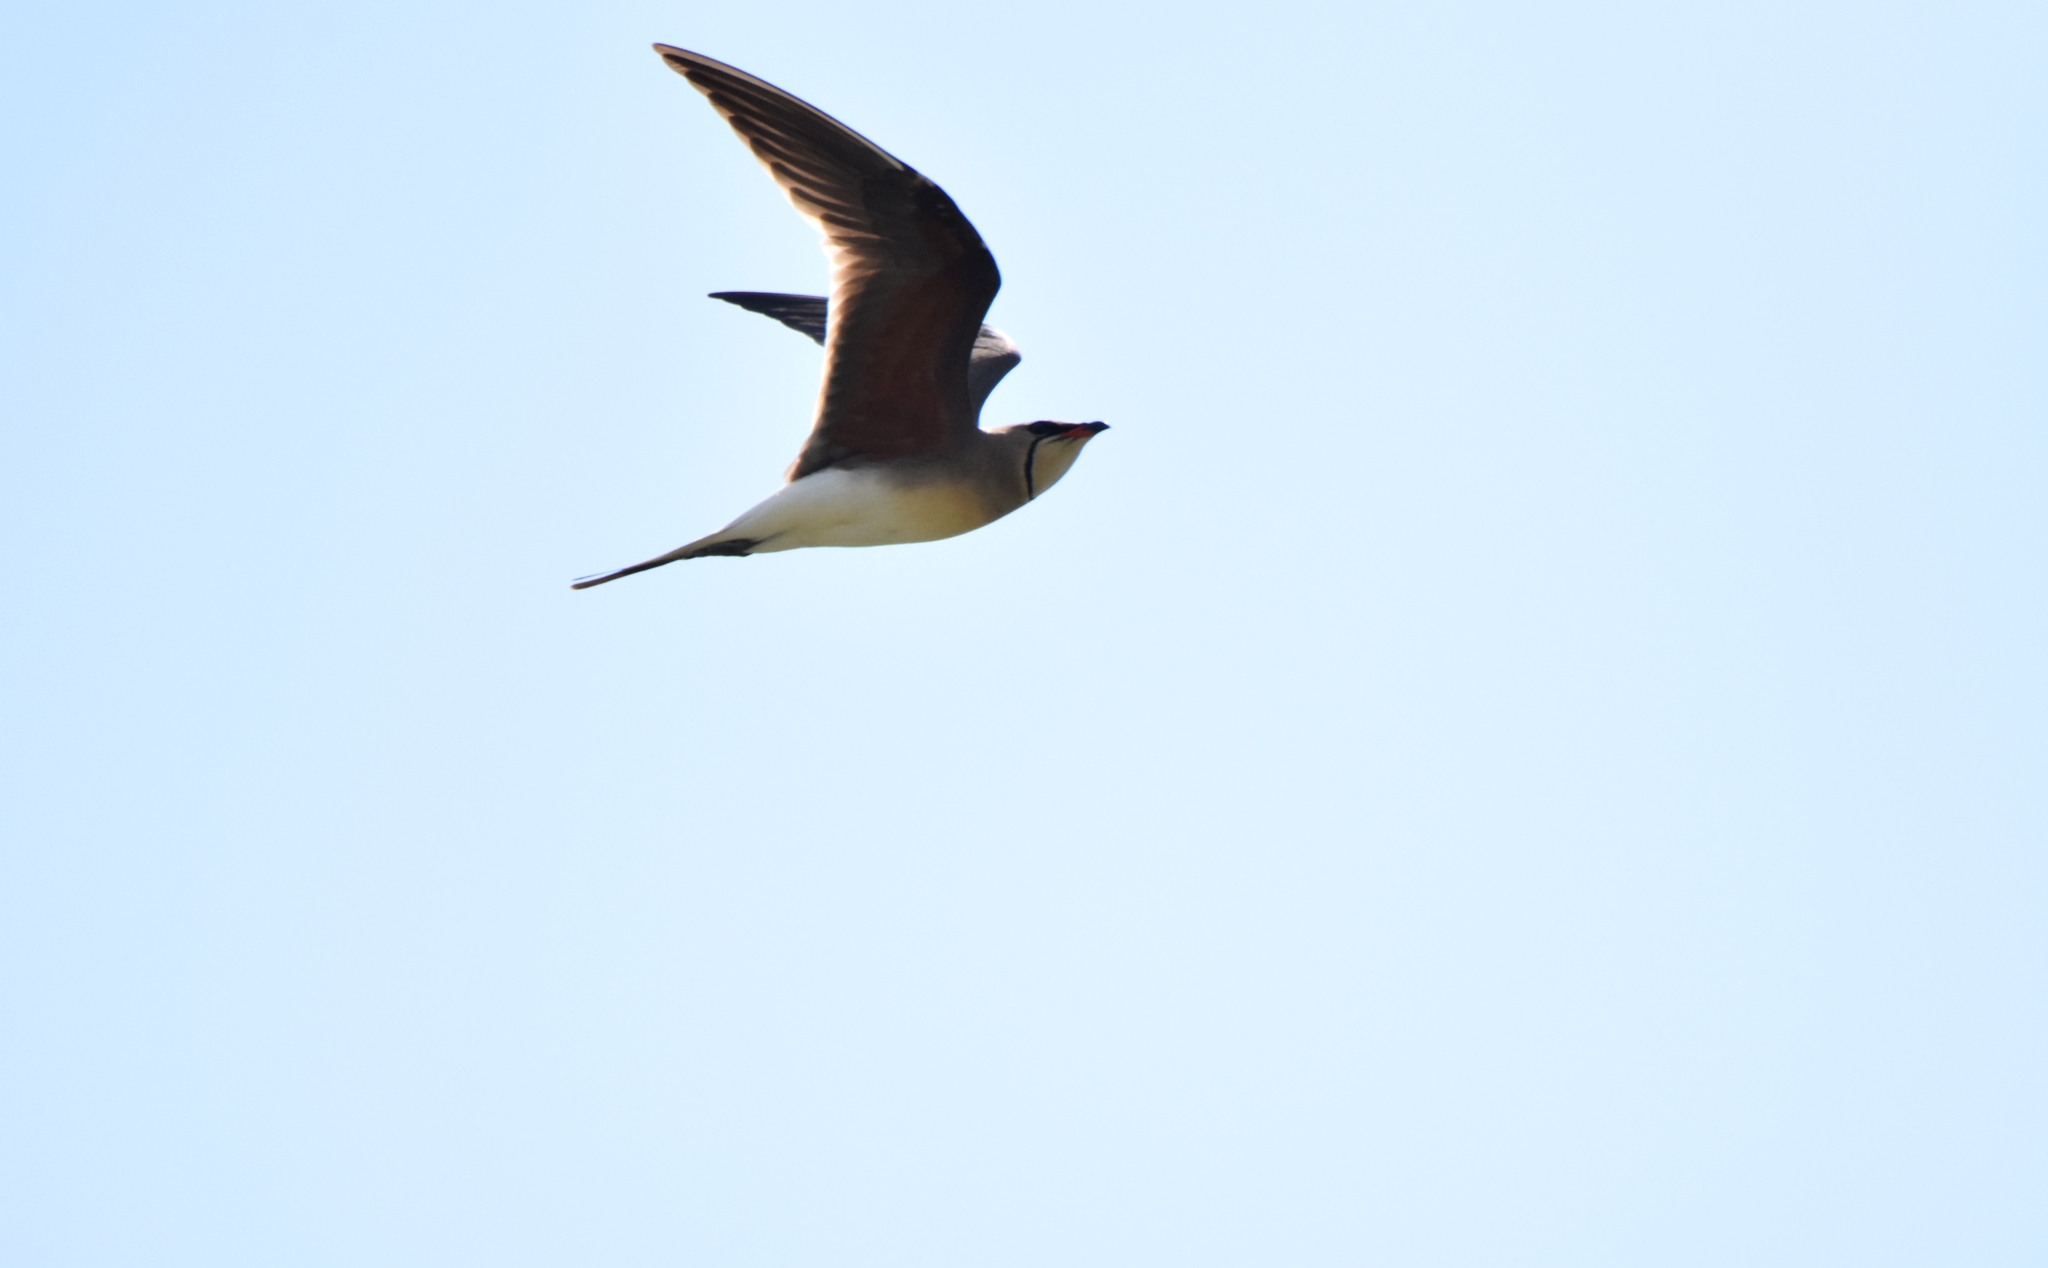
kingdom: Animalia
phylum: Chordata
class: Aves
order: Charadriiformes
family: Glareolidae
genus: Glareola
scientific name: Glareola pratincola
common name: Collared pratincole
